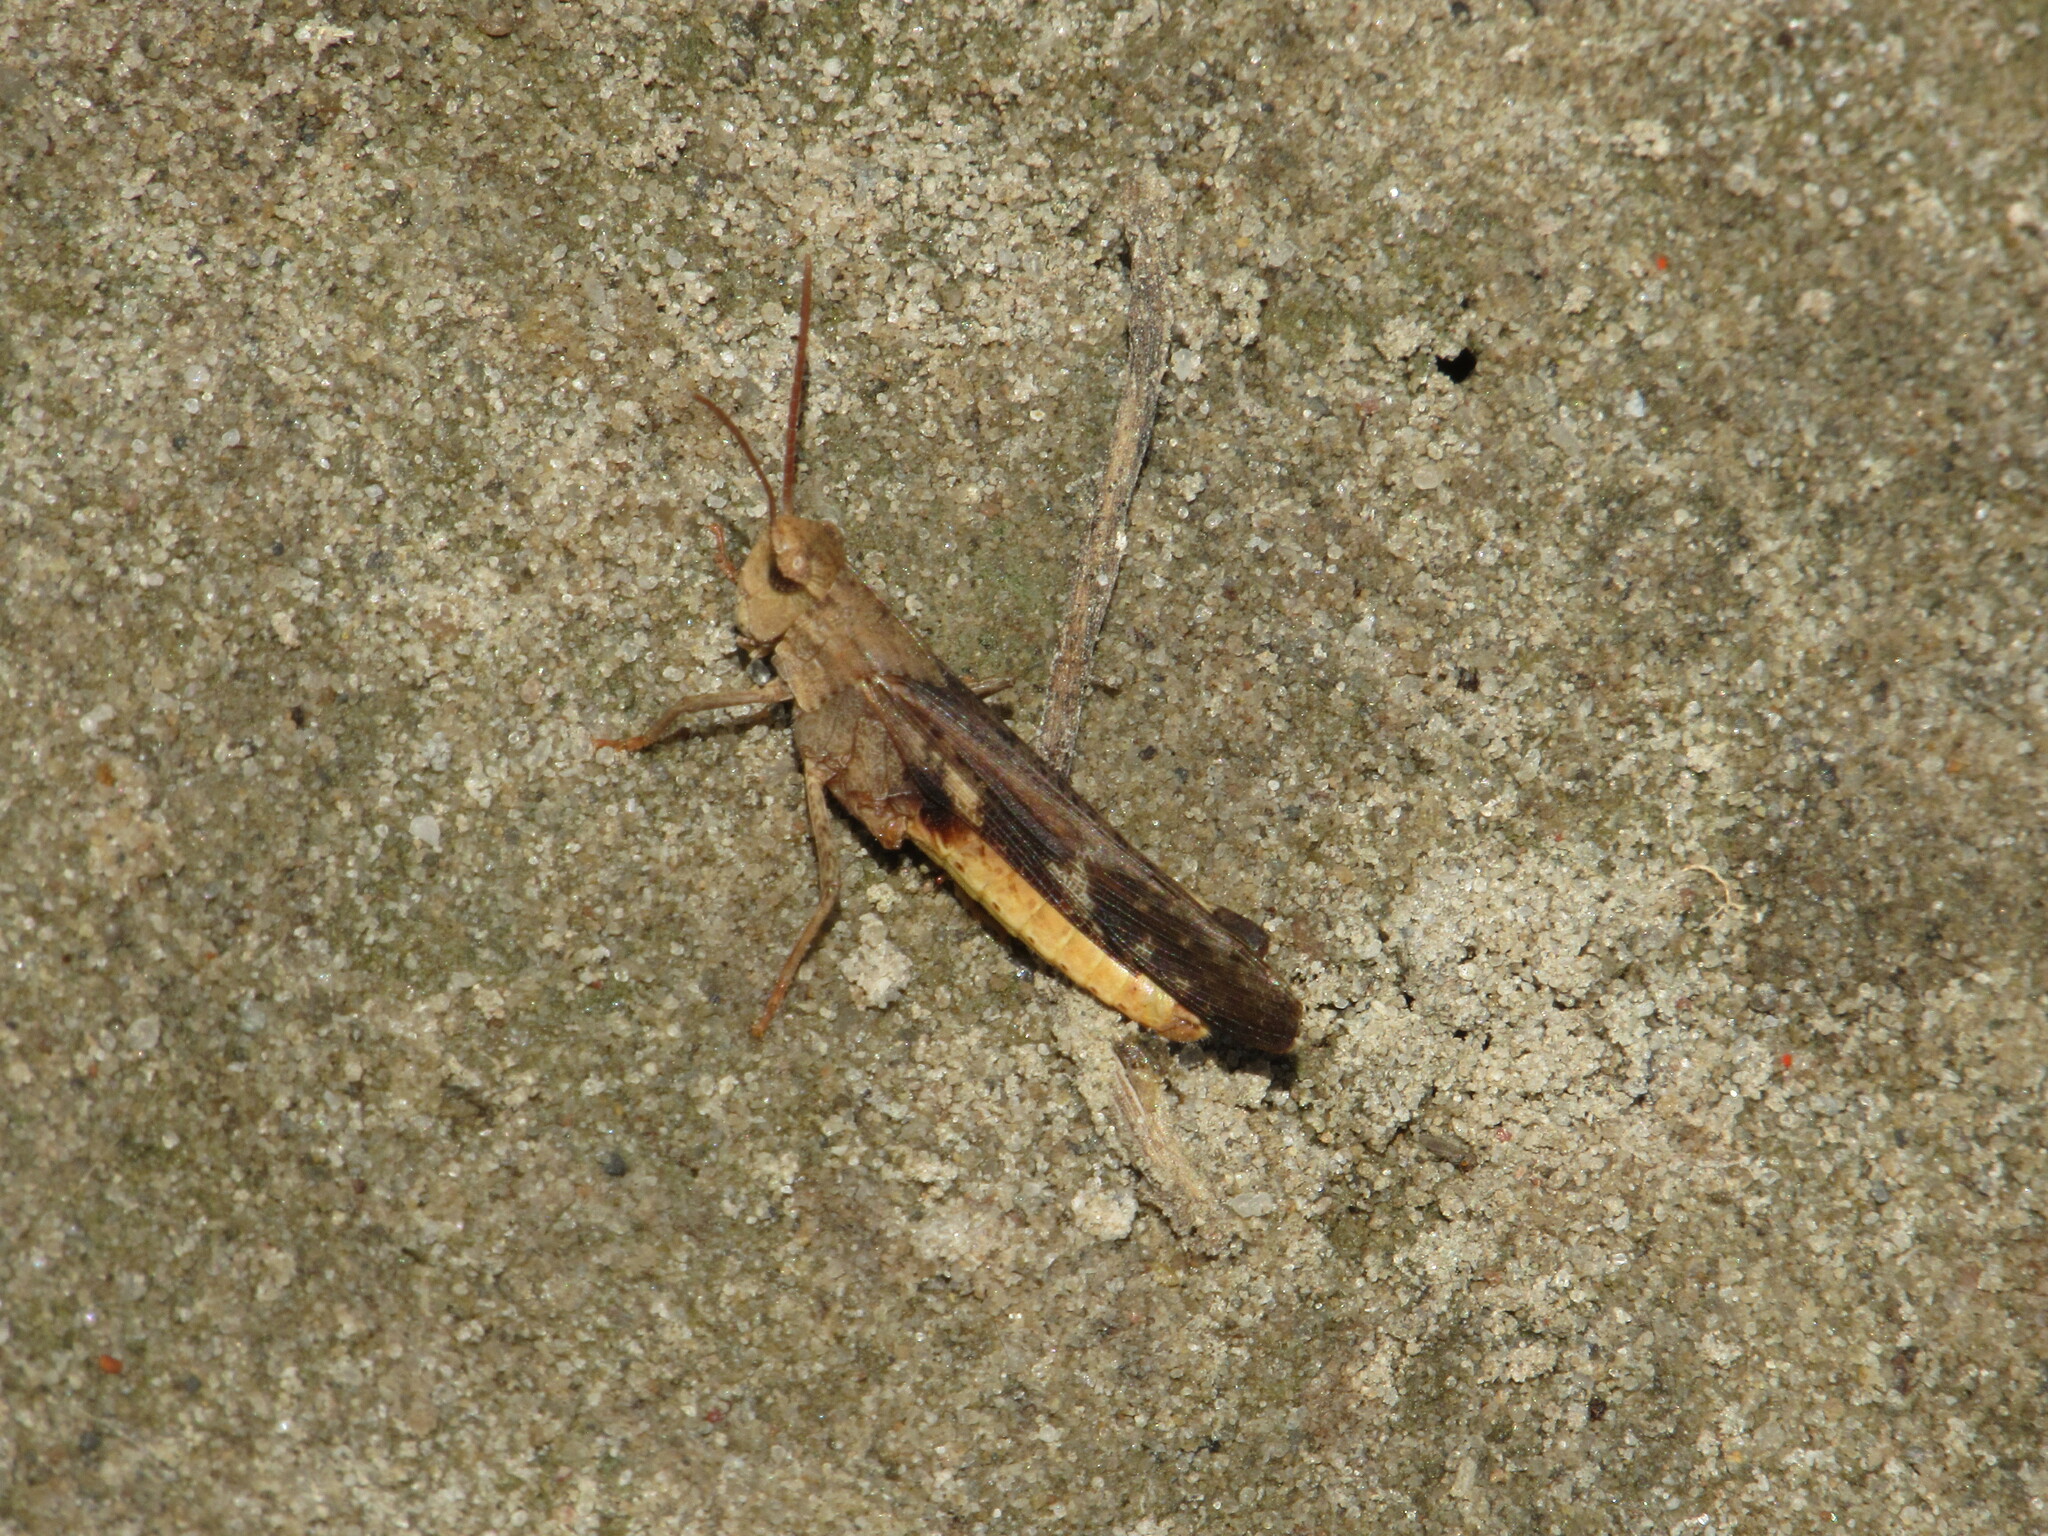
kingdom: Animalia
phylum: Arthropoda
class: Insecta
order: Orthoptera
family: Acrididae
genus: Chortophaga
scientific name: Chortophaga viridifasciata
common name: Green-striped grasshopper
